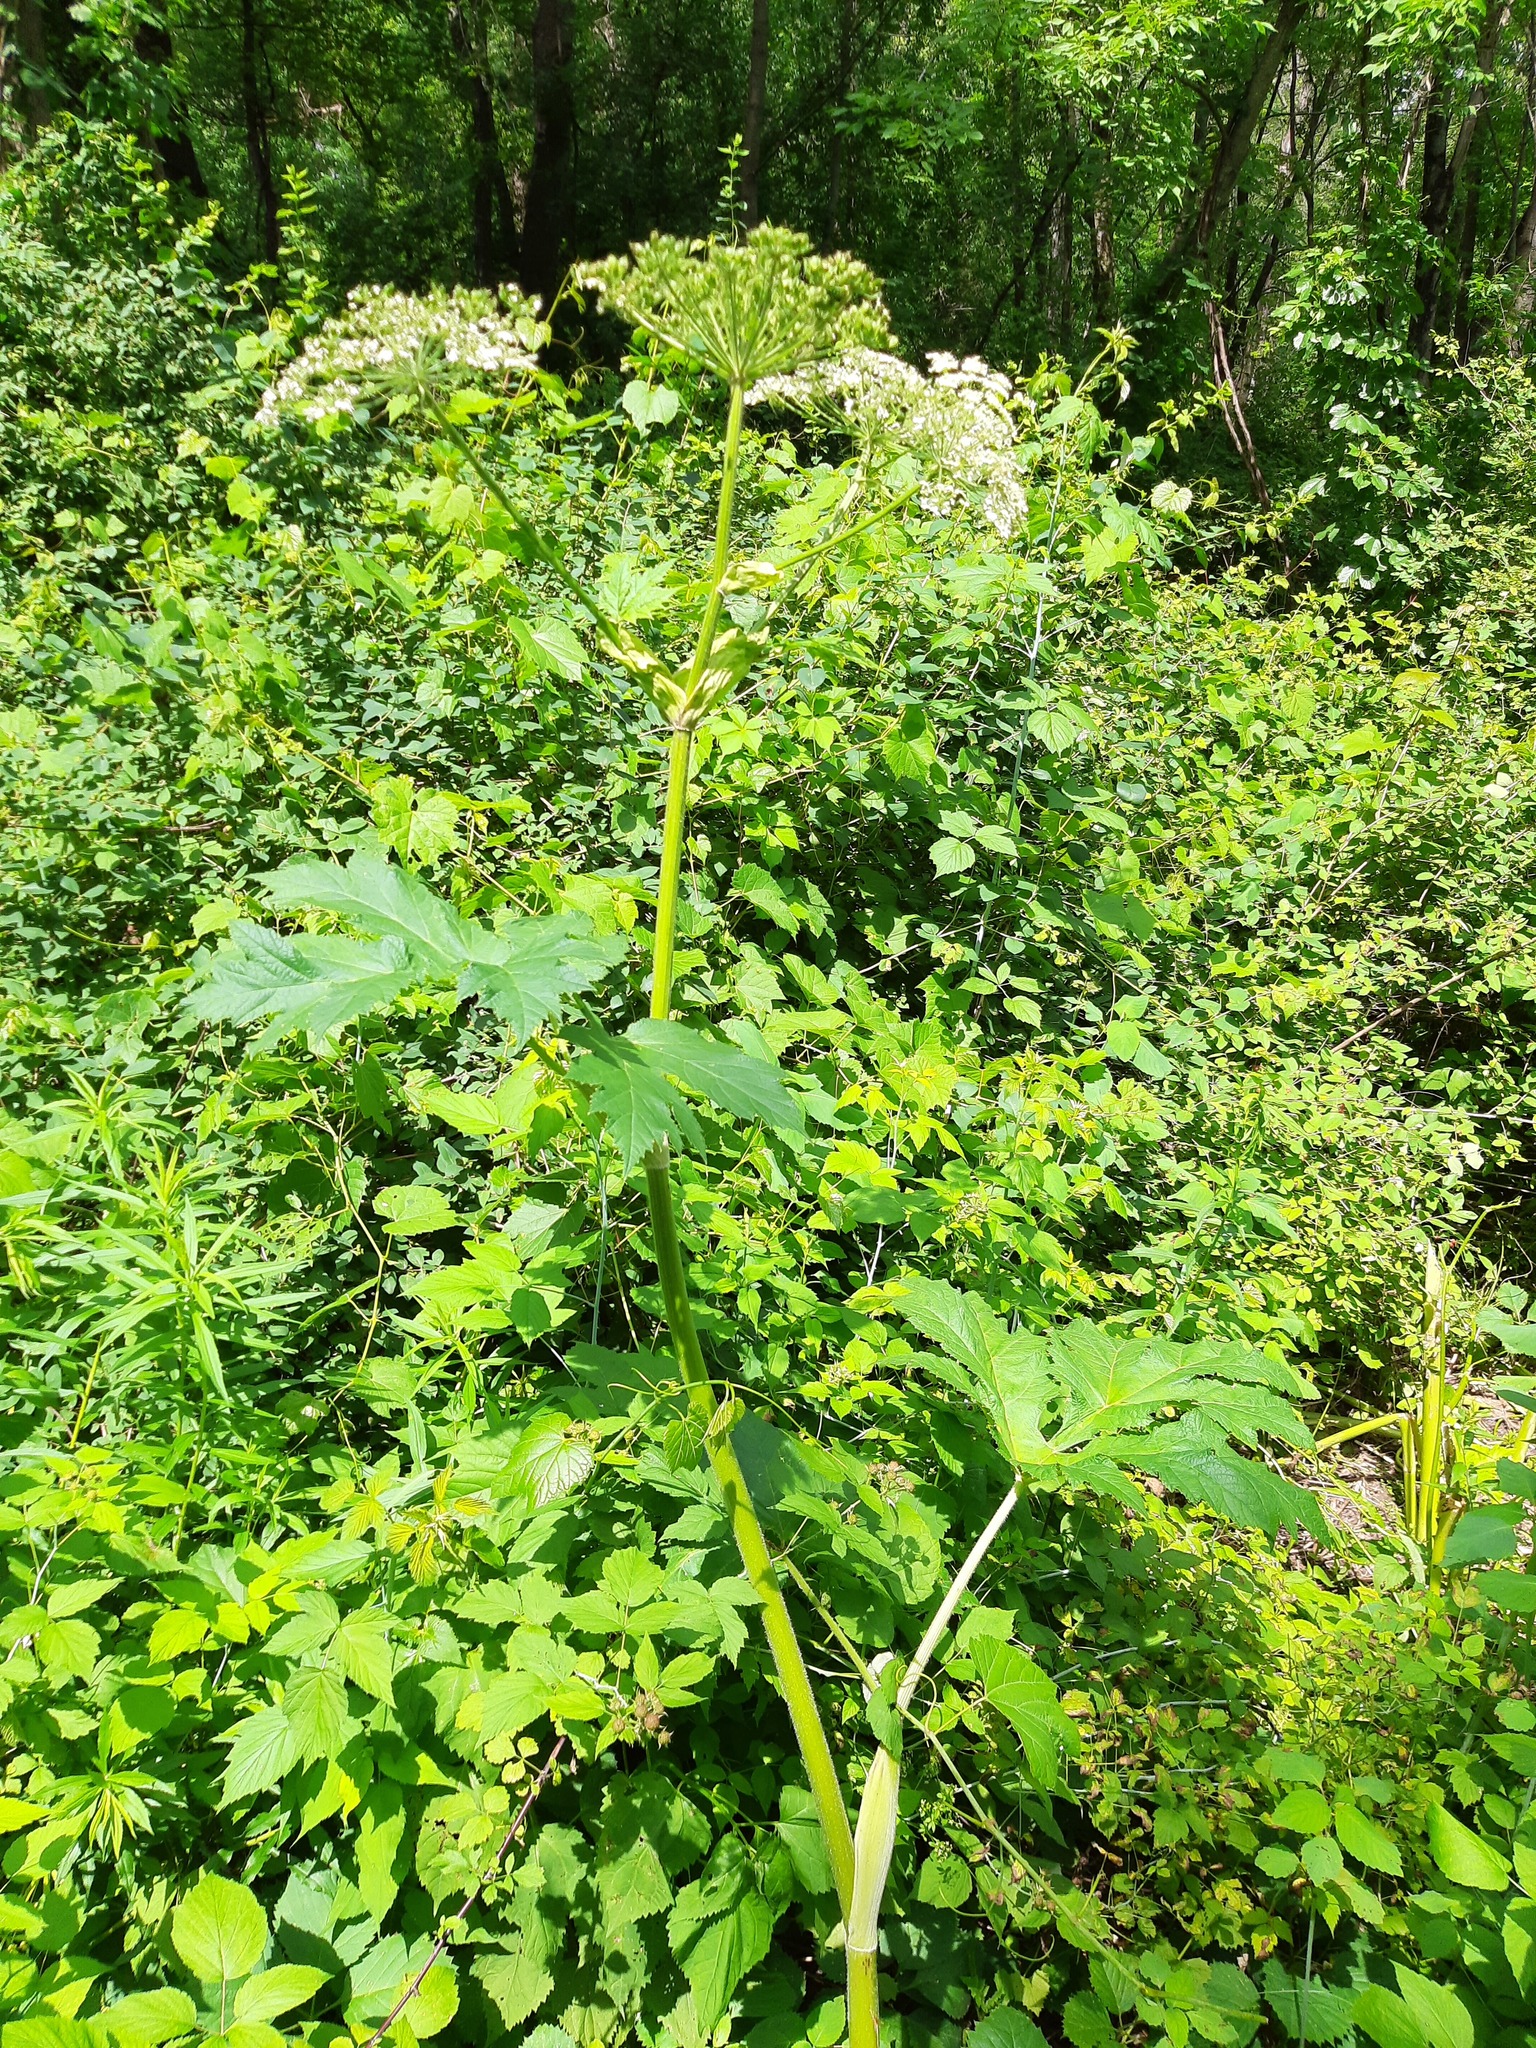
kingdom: Plantae
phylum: Tracheophyta
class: Magnoliopsida
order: Apiales
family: Apiaceae
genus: Heracleum
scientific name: Heracleum maximum
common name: American cow parsnip
